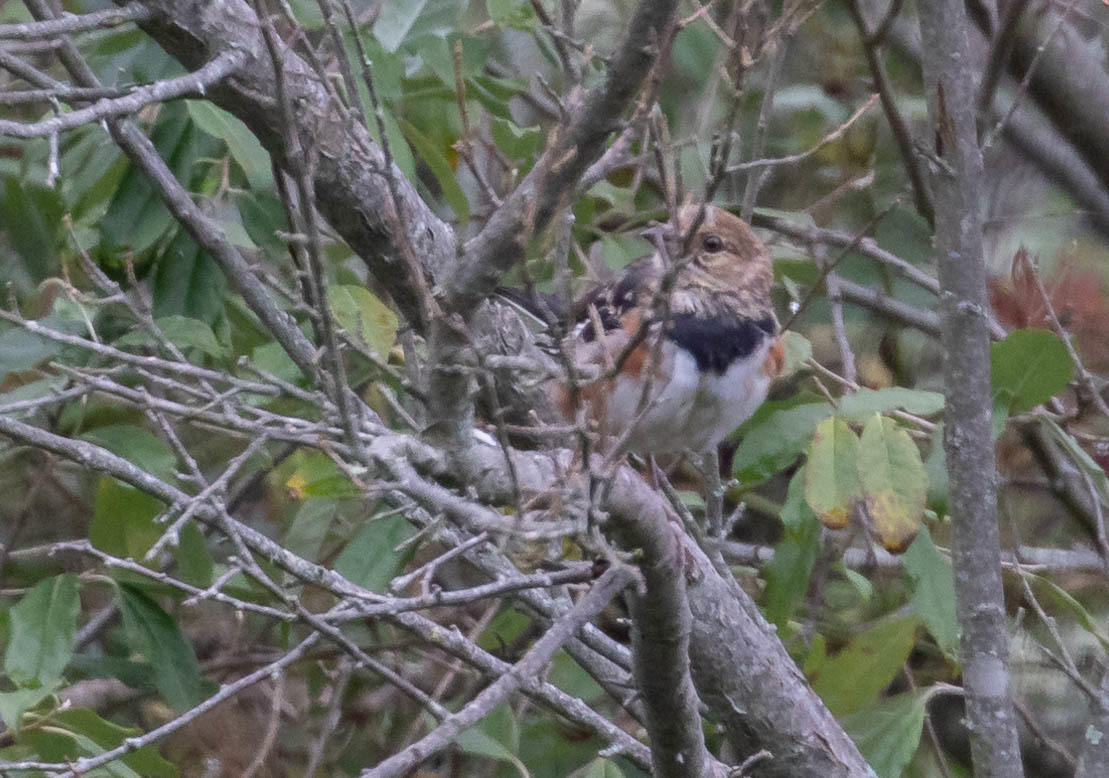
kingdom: Animalia
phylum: Chordata
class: Aves
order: Passeriformes
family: Passerellidae
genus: Pipilo
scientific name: Pipilo erythrophthalmus
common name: Eastern towhee
